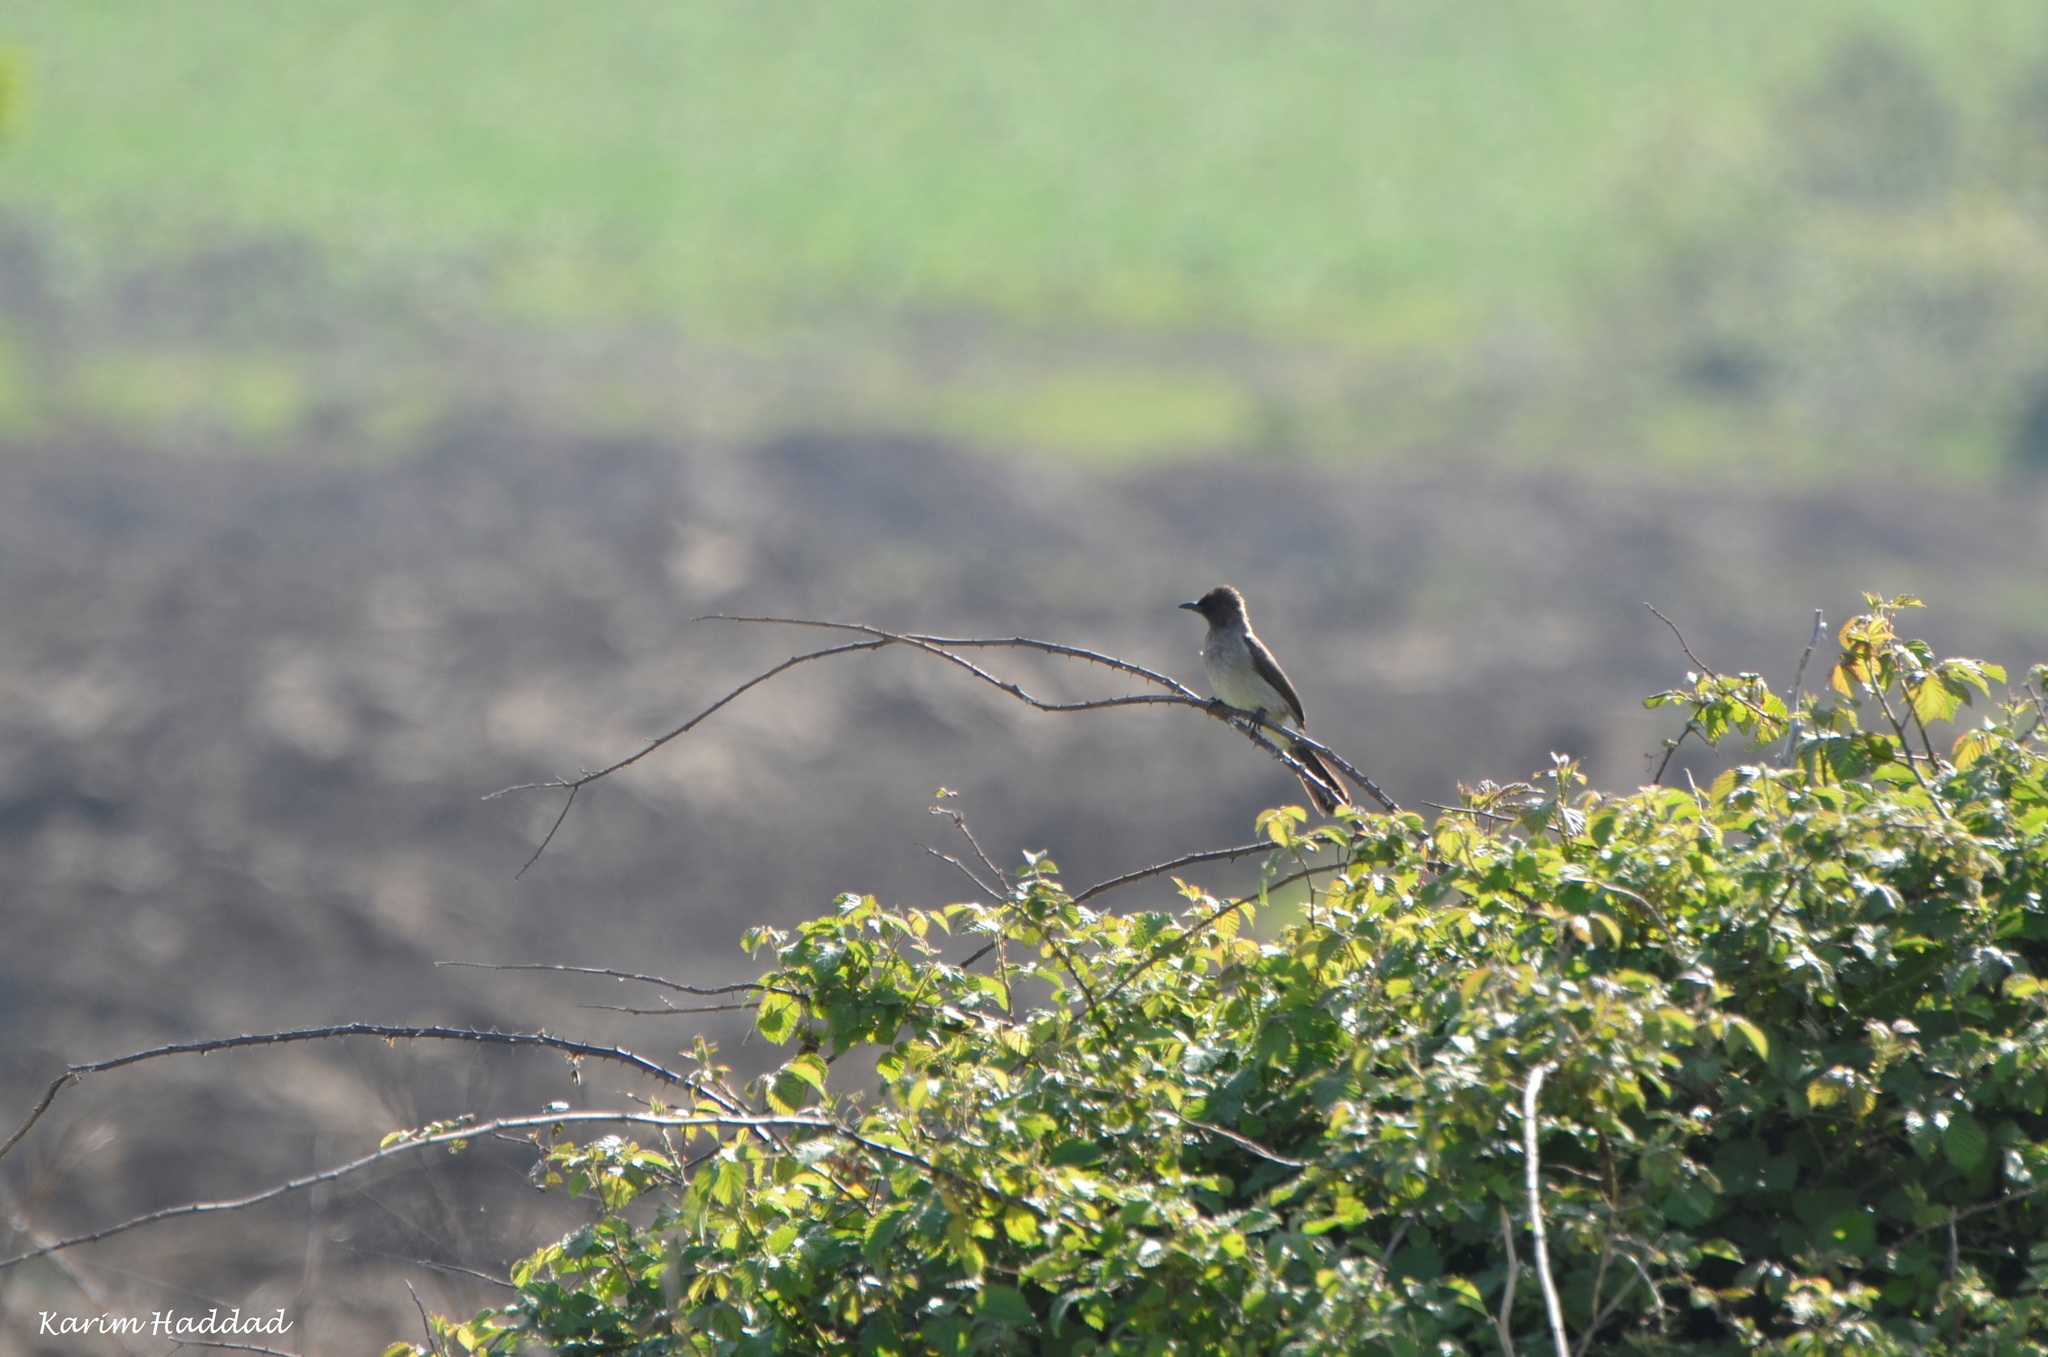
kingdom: Animalia
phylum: Chordata
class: Aves
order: Passeriformes
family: Pycnonotidae
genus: Pycnonotus
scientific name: Pycnonotus barbatus
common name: Common bulbul
